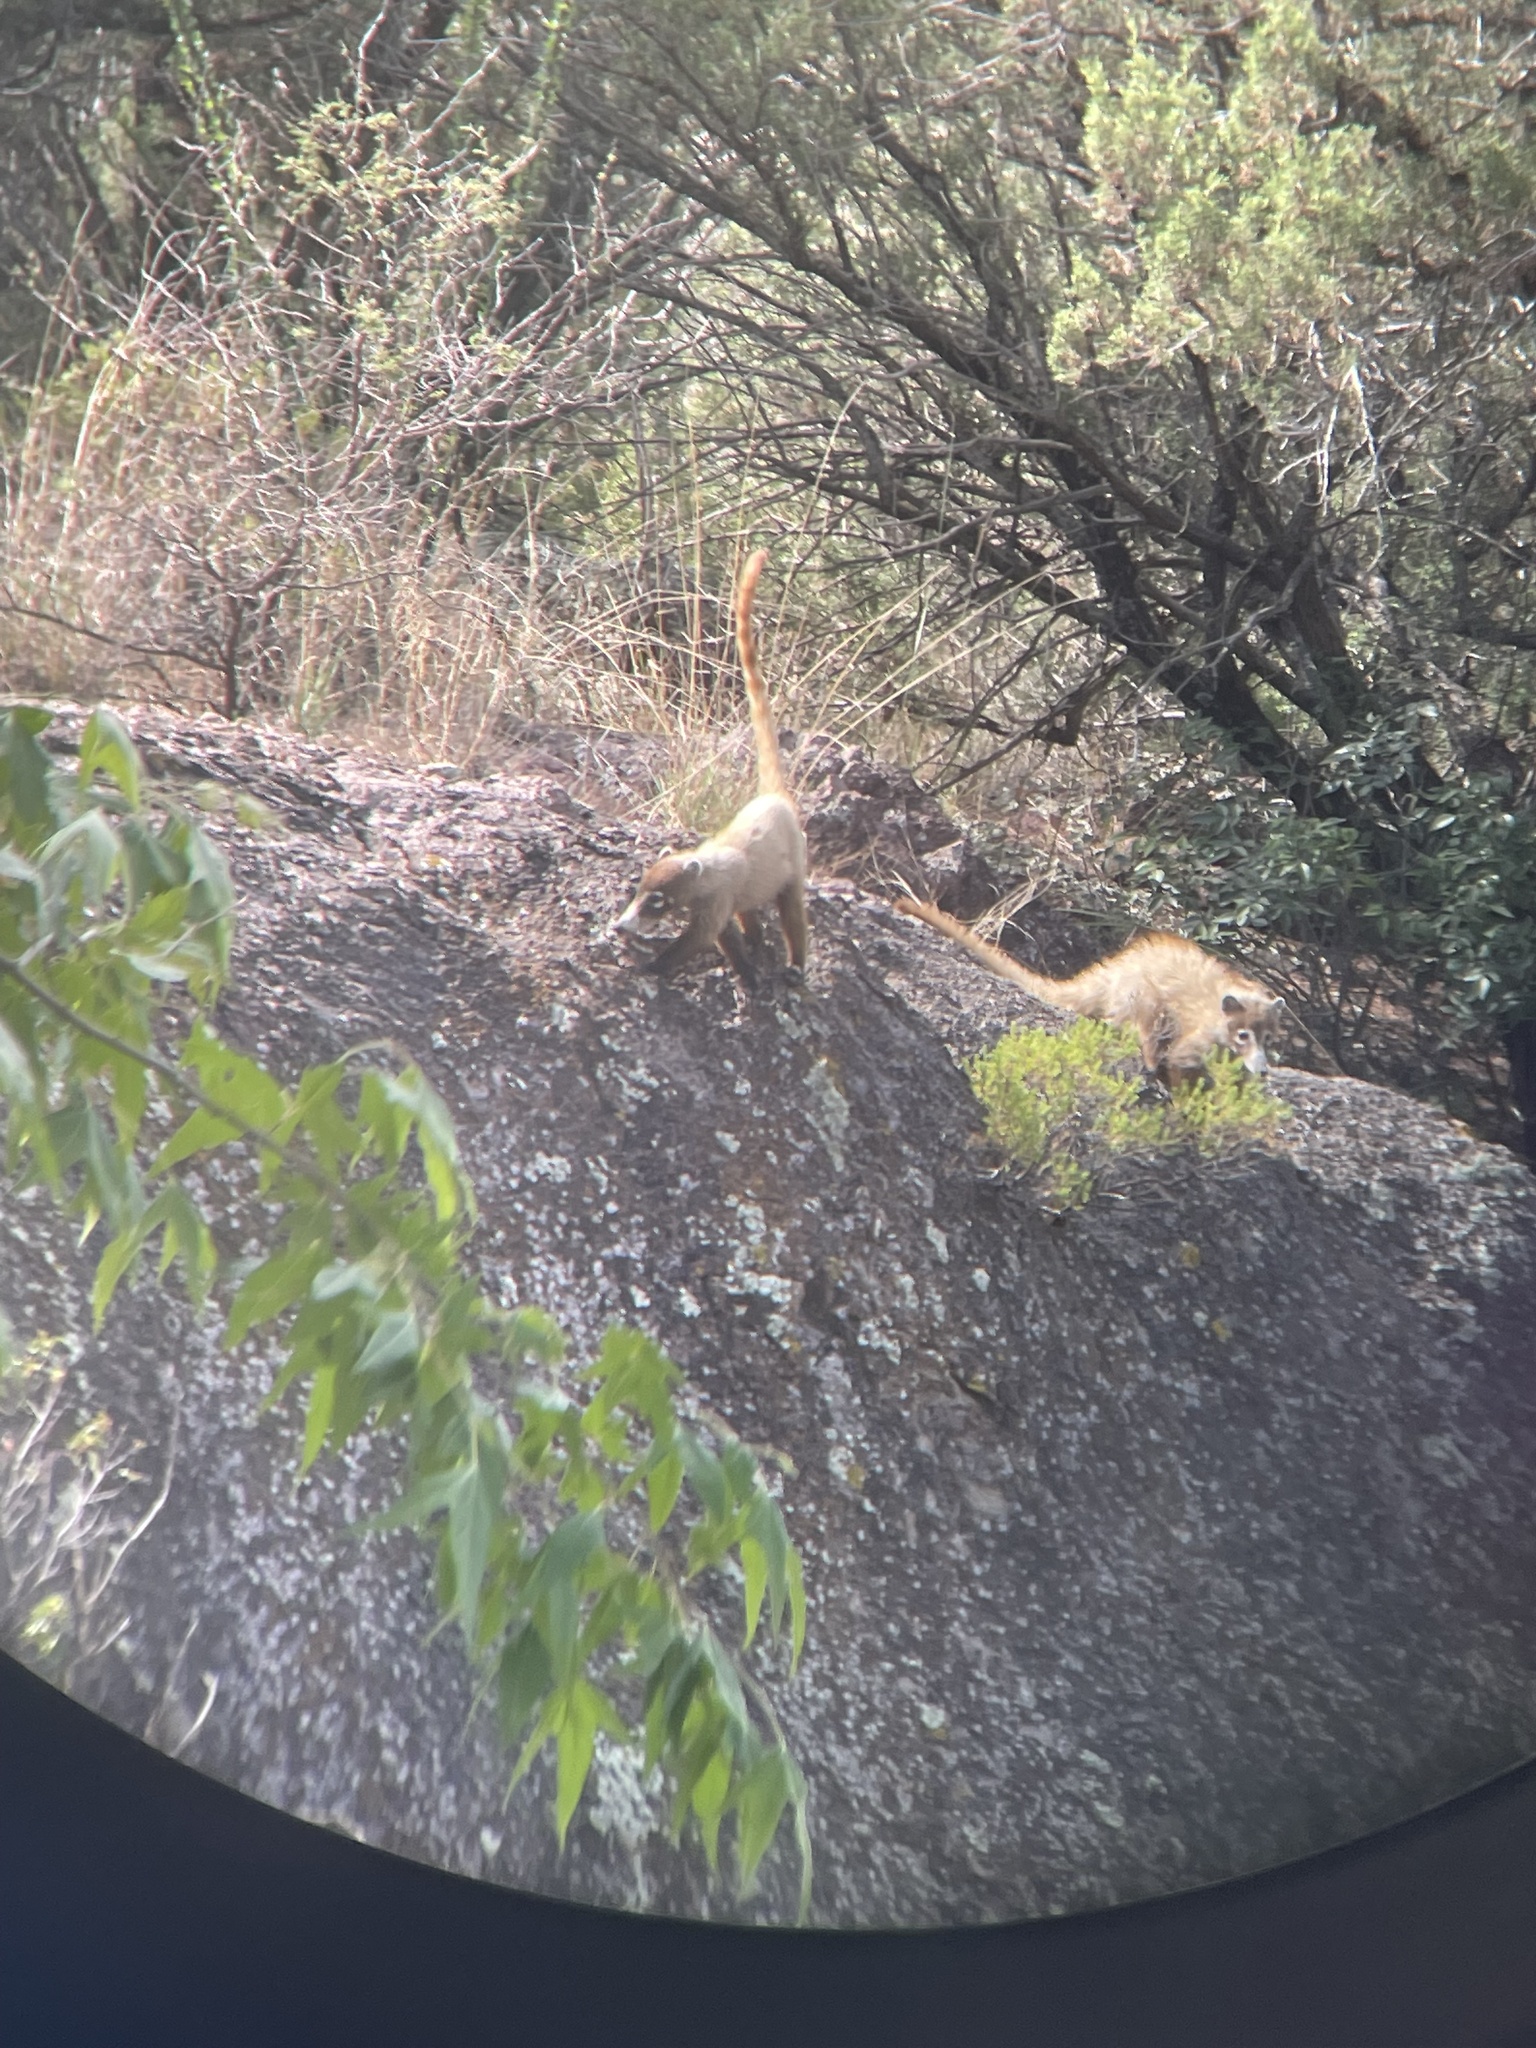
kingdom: Animalia
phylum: Chordata
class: Mammalia
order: Carnivora
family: Procyonidae
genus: Nasua
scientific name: Nasua narica
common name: White-nosed coati
